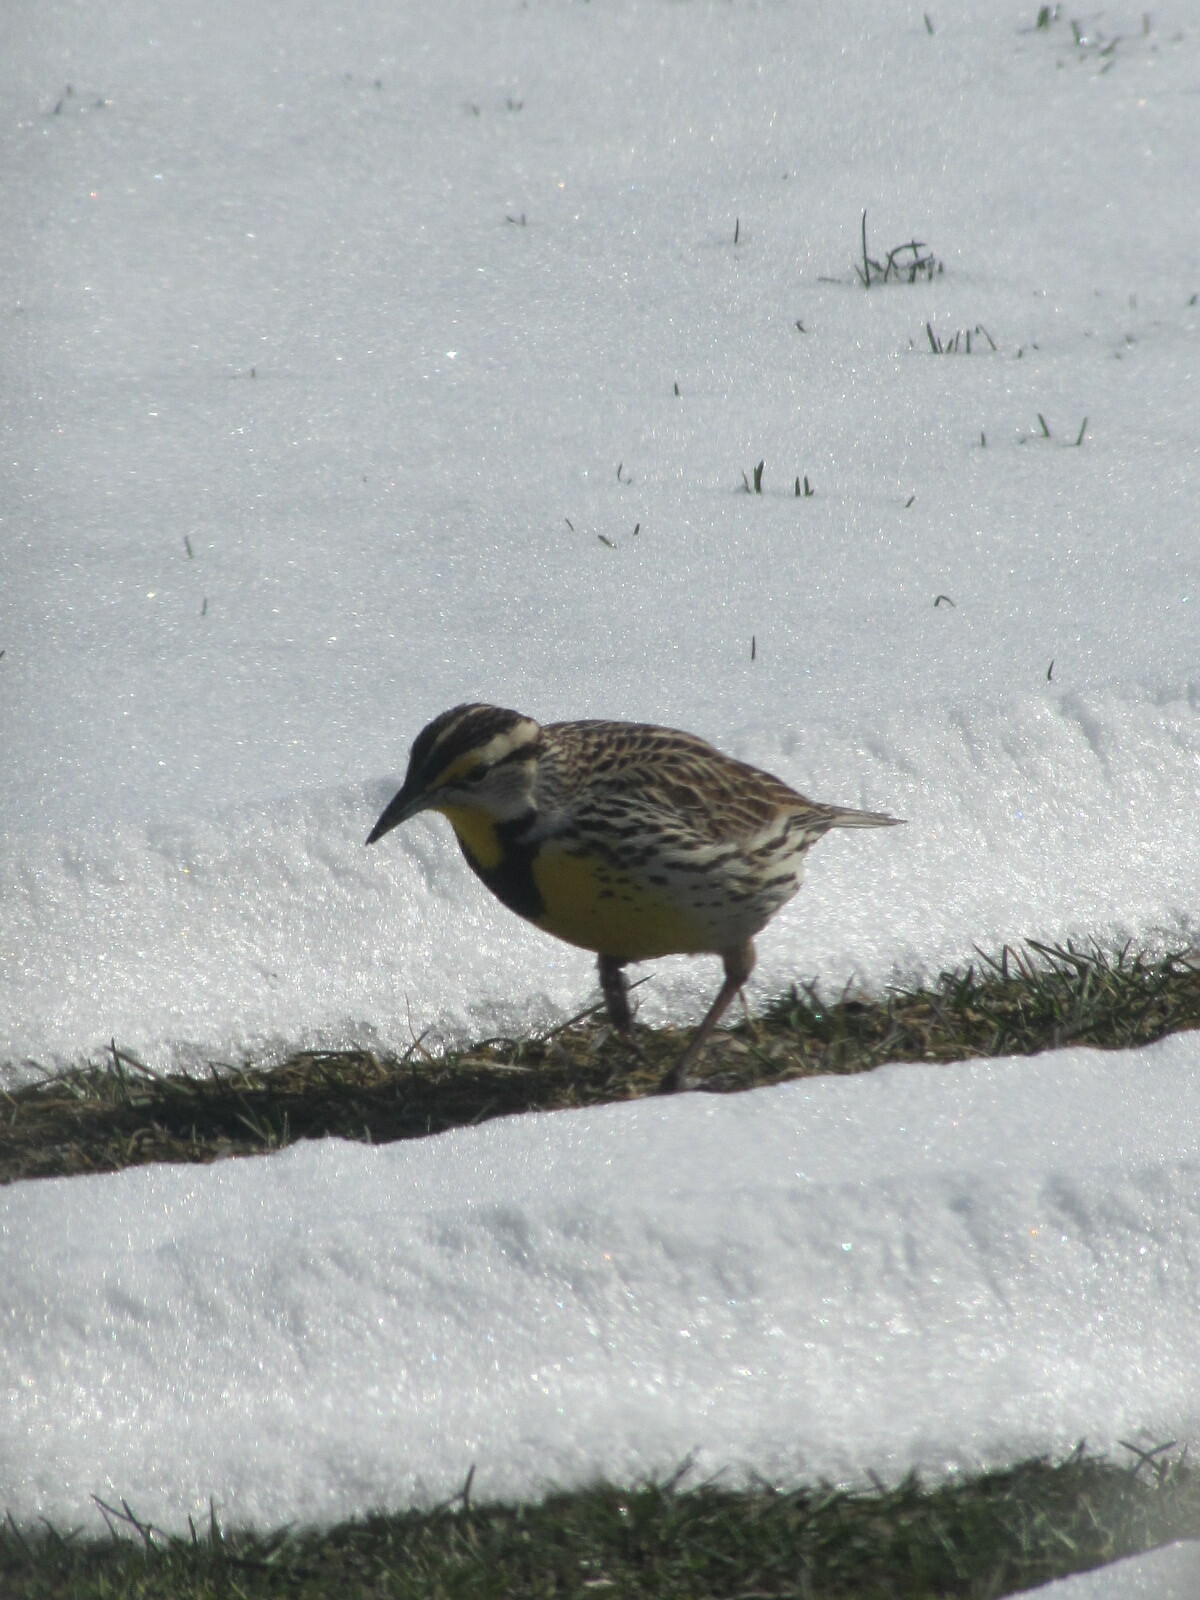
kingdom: Animalia
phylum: Chordata
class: Aves
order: Passeriformes
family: Icteridae
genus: Sturnella
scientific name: Sturnella magna
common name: Eastern meadowlark
